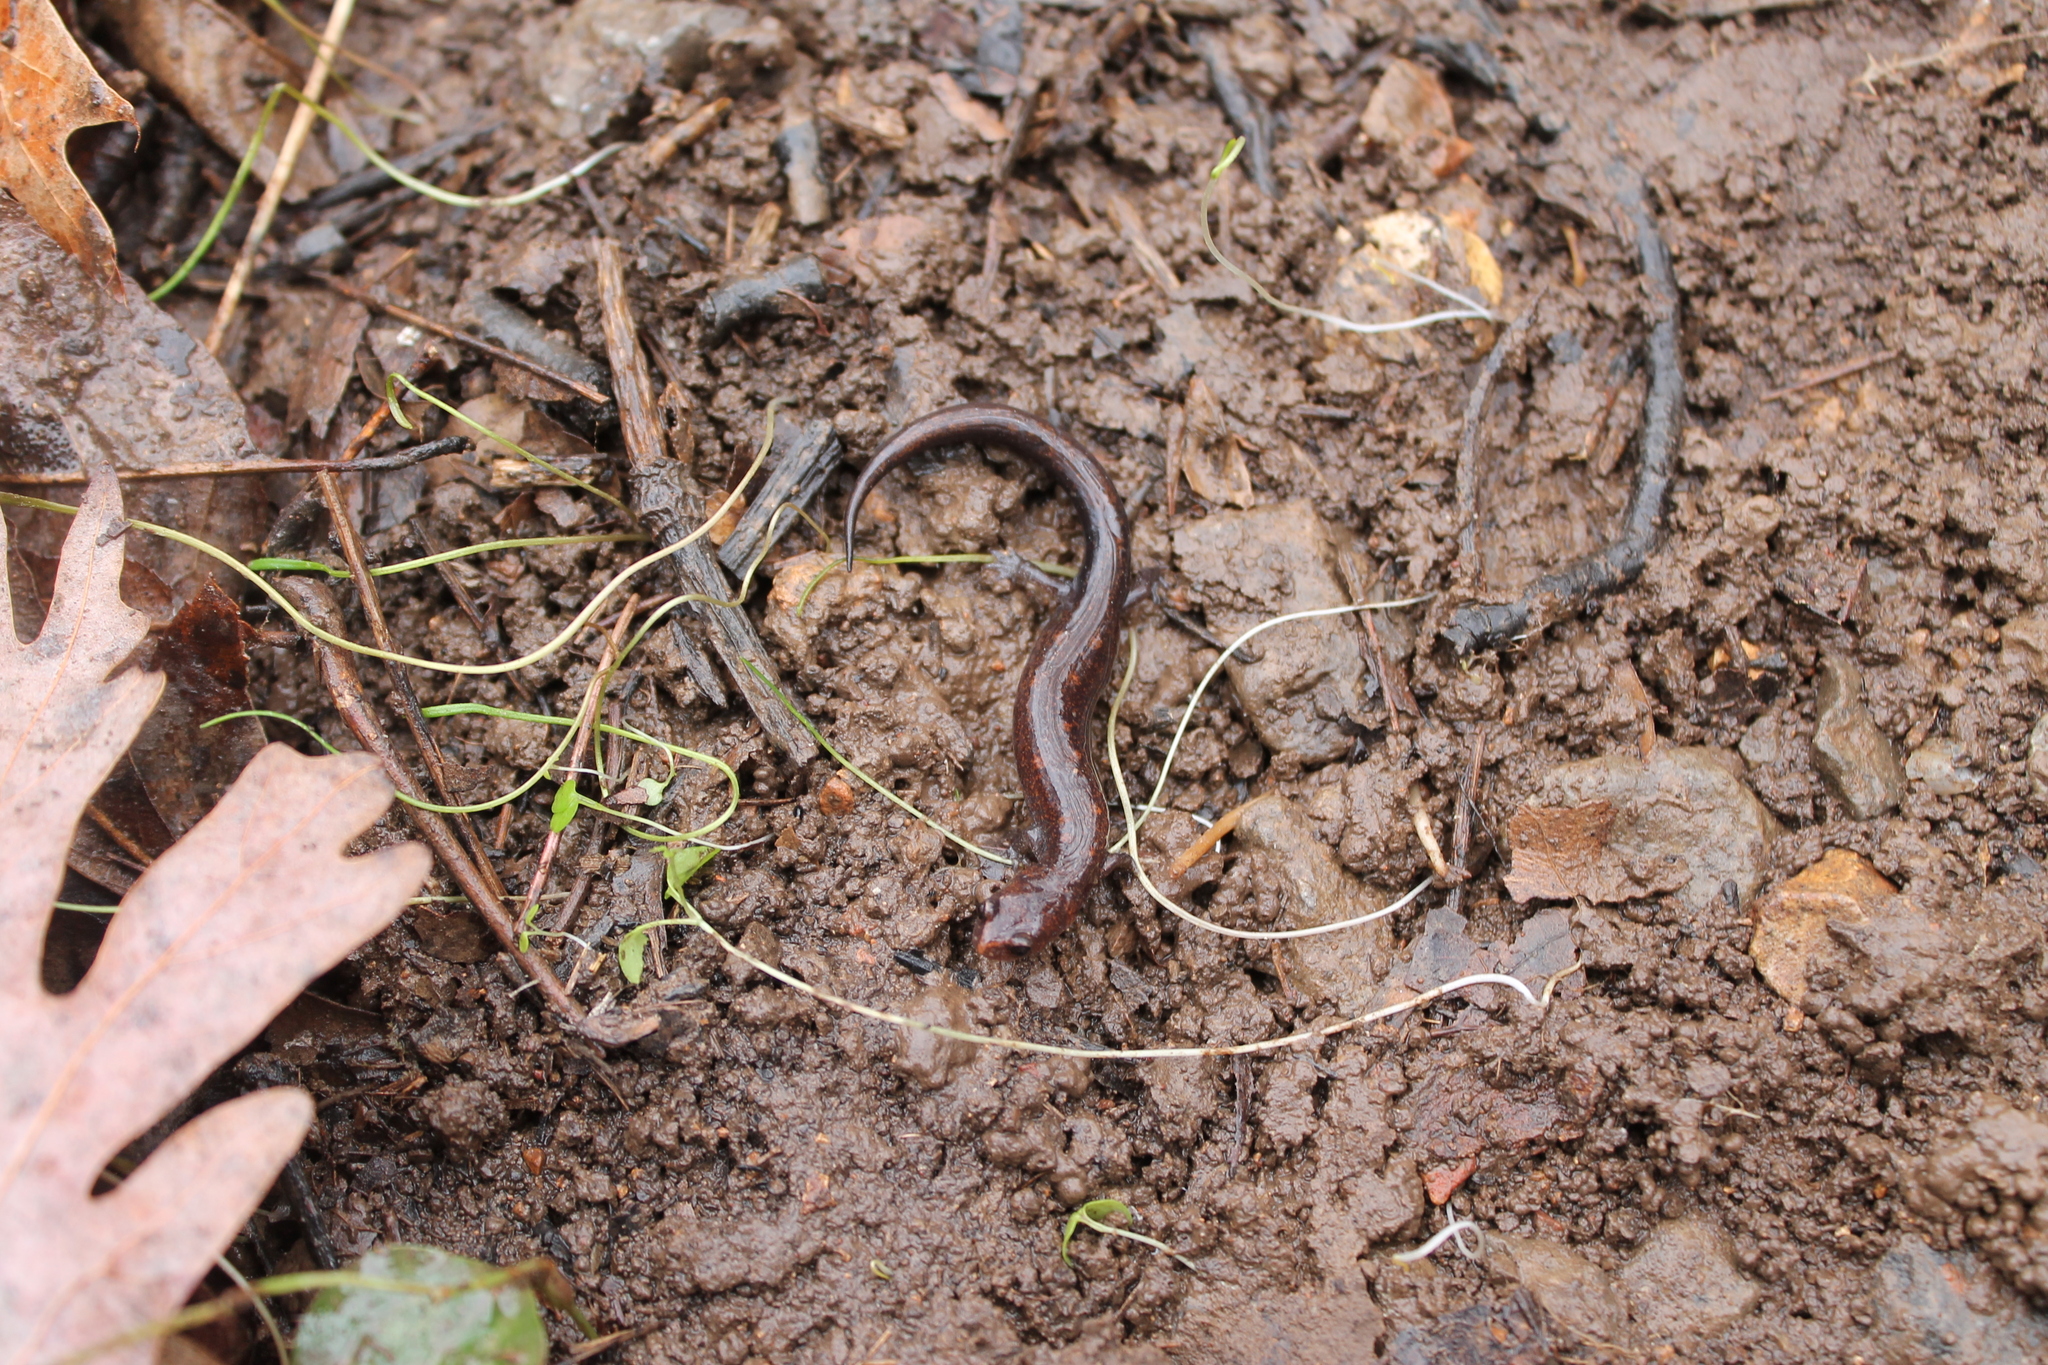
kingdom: Animalia
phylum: Chordata
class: Amphibia
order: Caudata
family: Plethodontidae
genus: Plethodon
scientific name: Plethodon dorsalis
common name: Northern zigzag salamander
